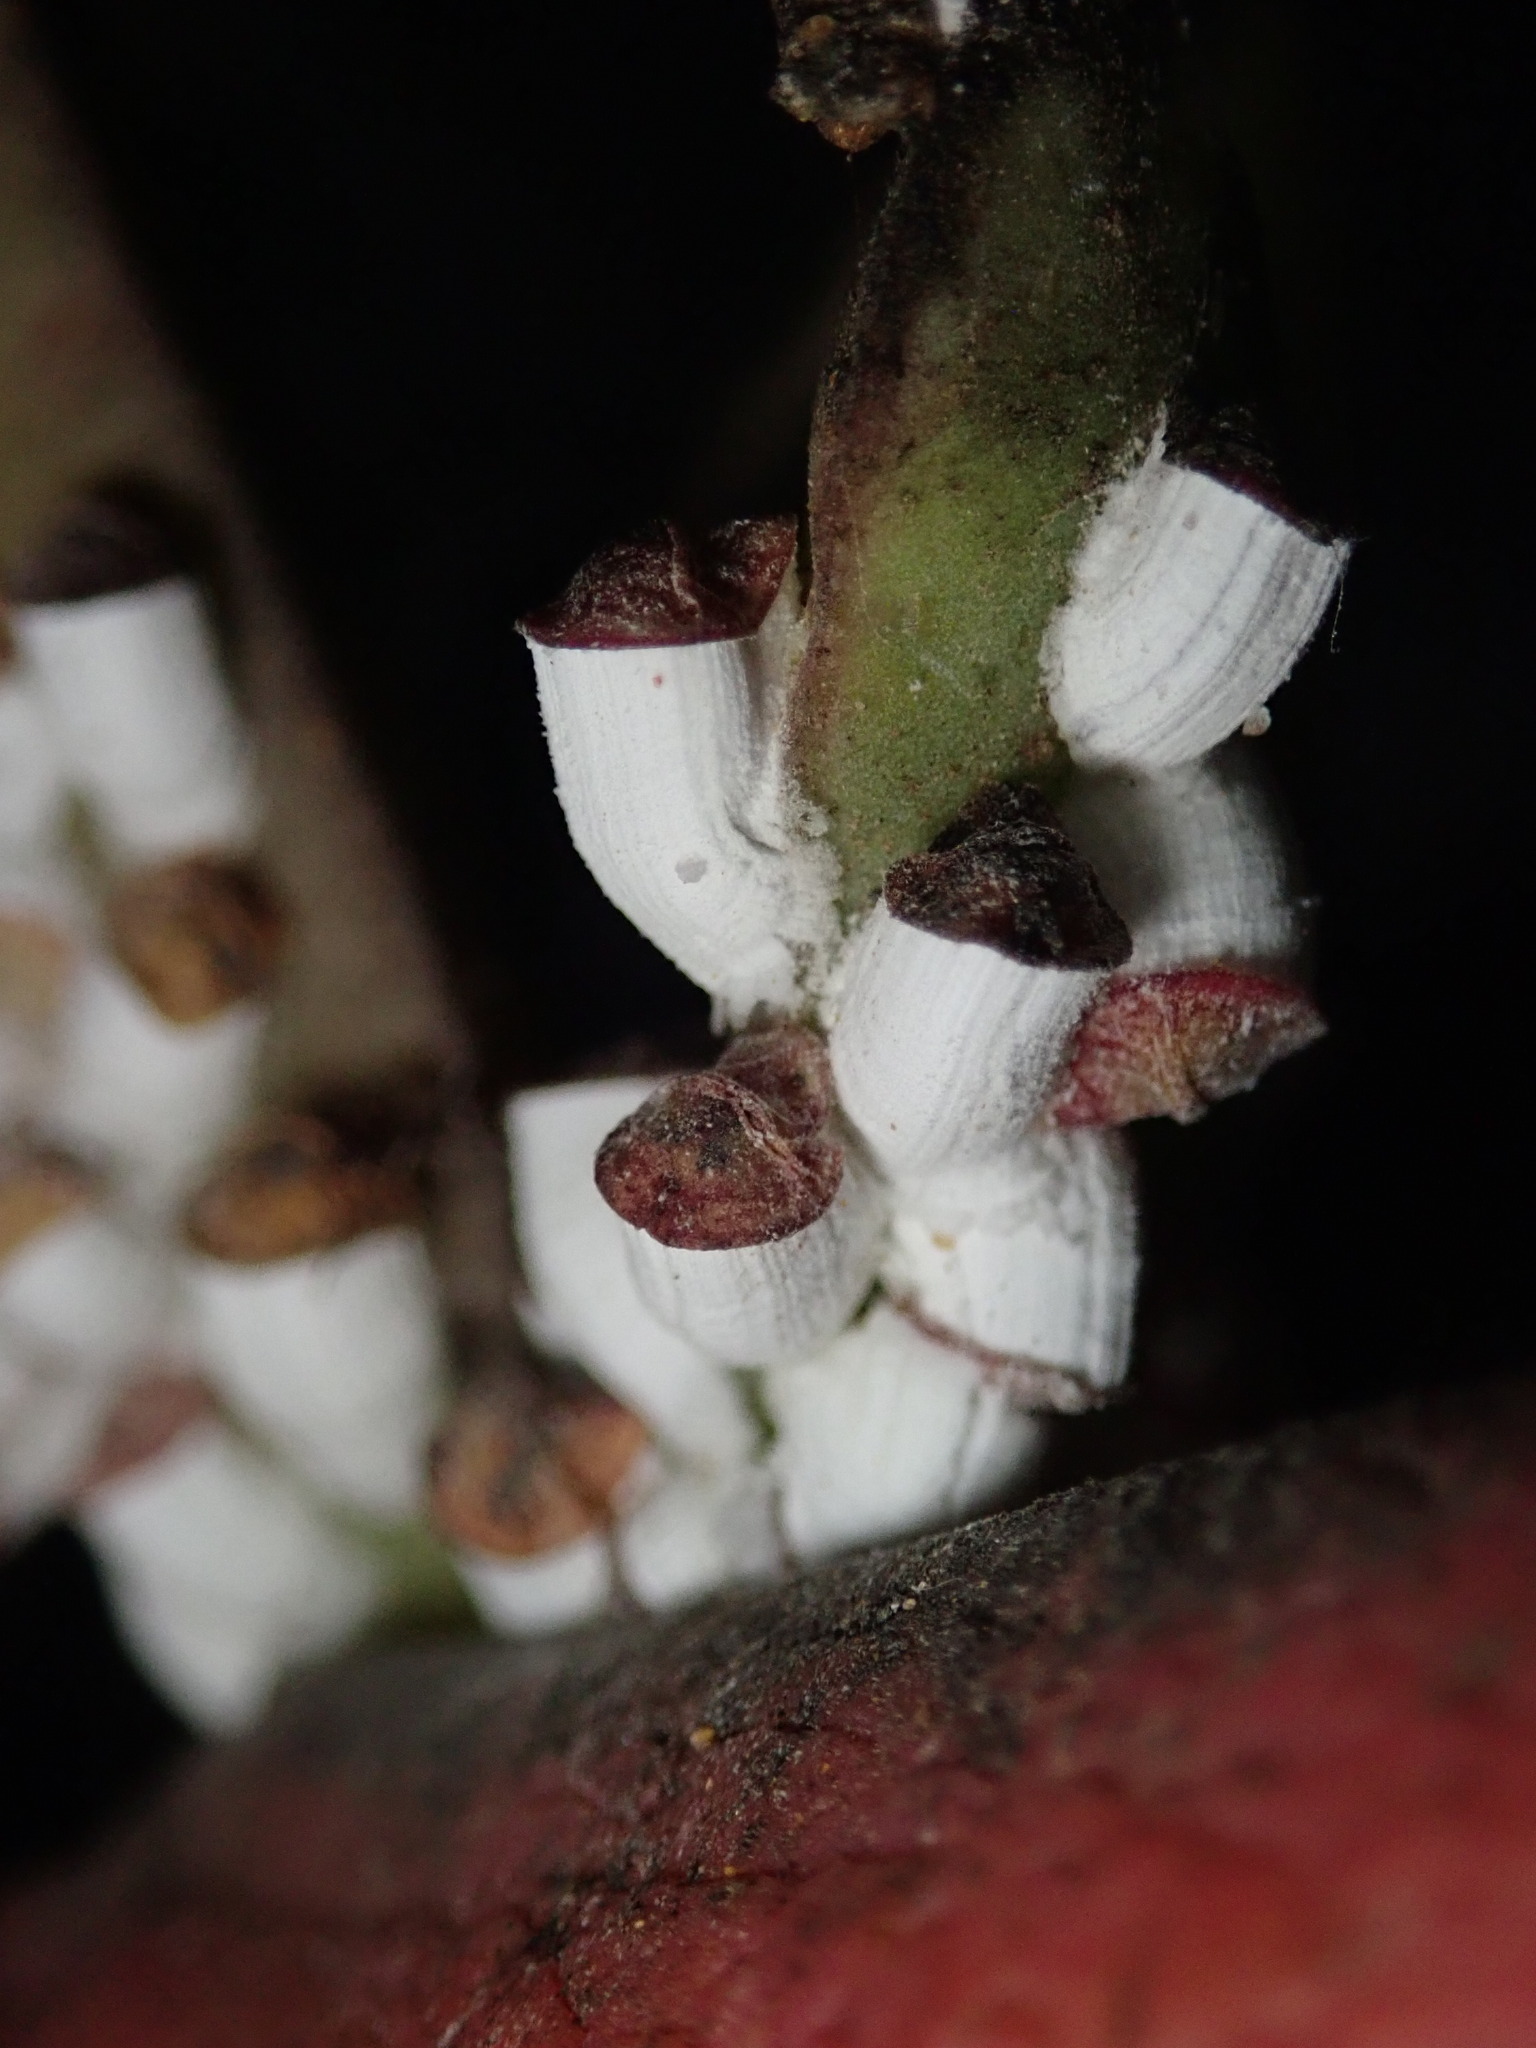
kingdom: Animalia
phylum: Arthropoda
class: Insecta
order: Hemiptera
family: Coccidae
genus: Pulvinariella
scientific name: Pulvinariella mesembryanthemi
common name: Cottony pigface scale
